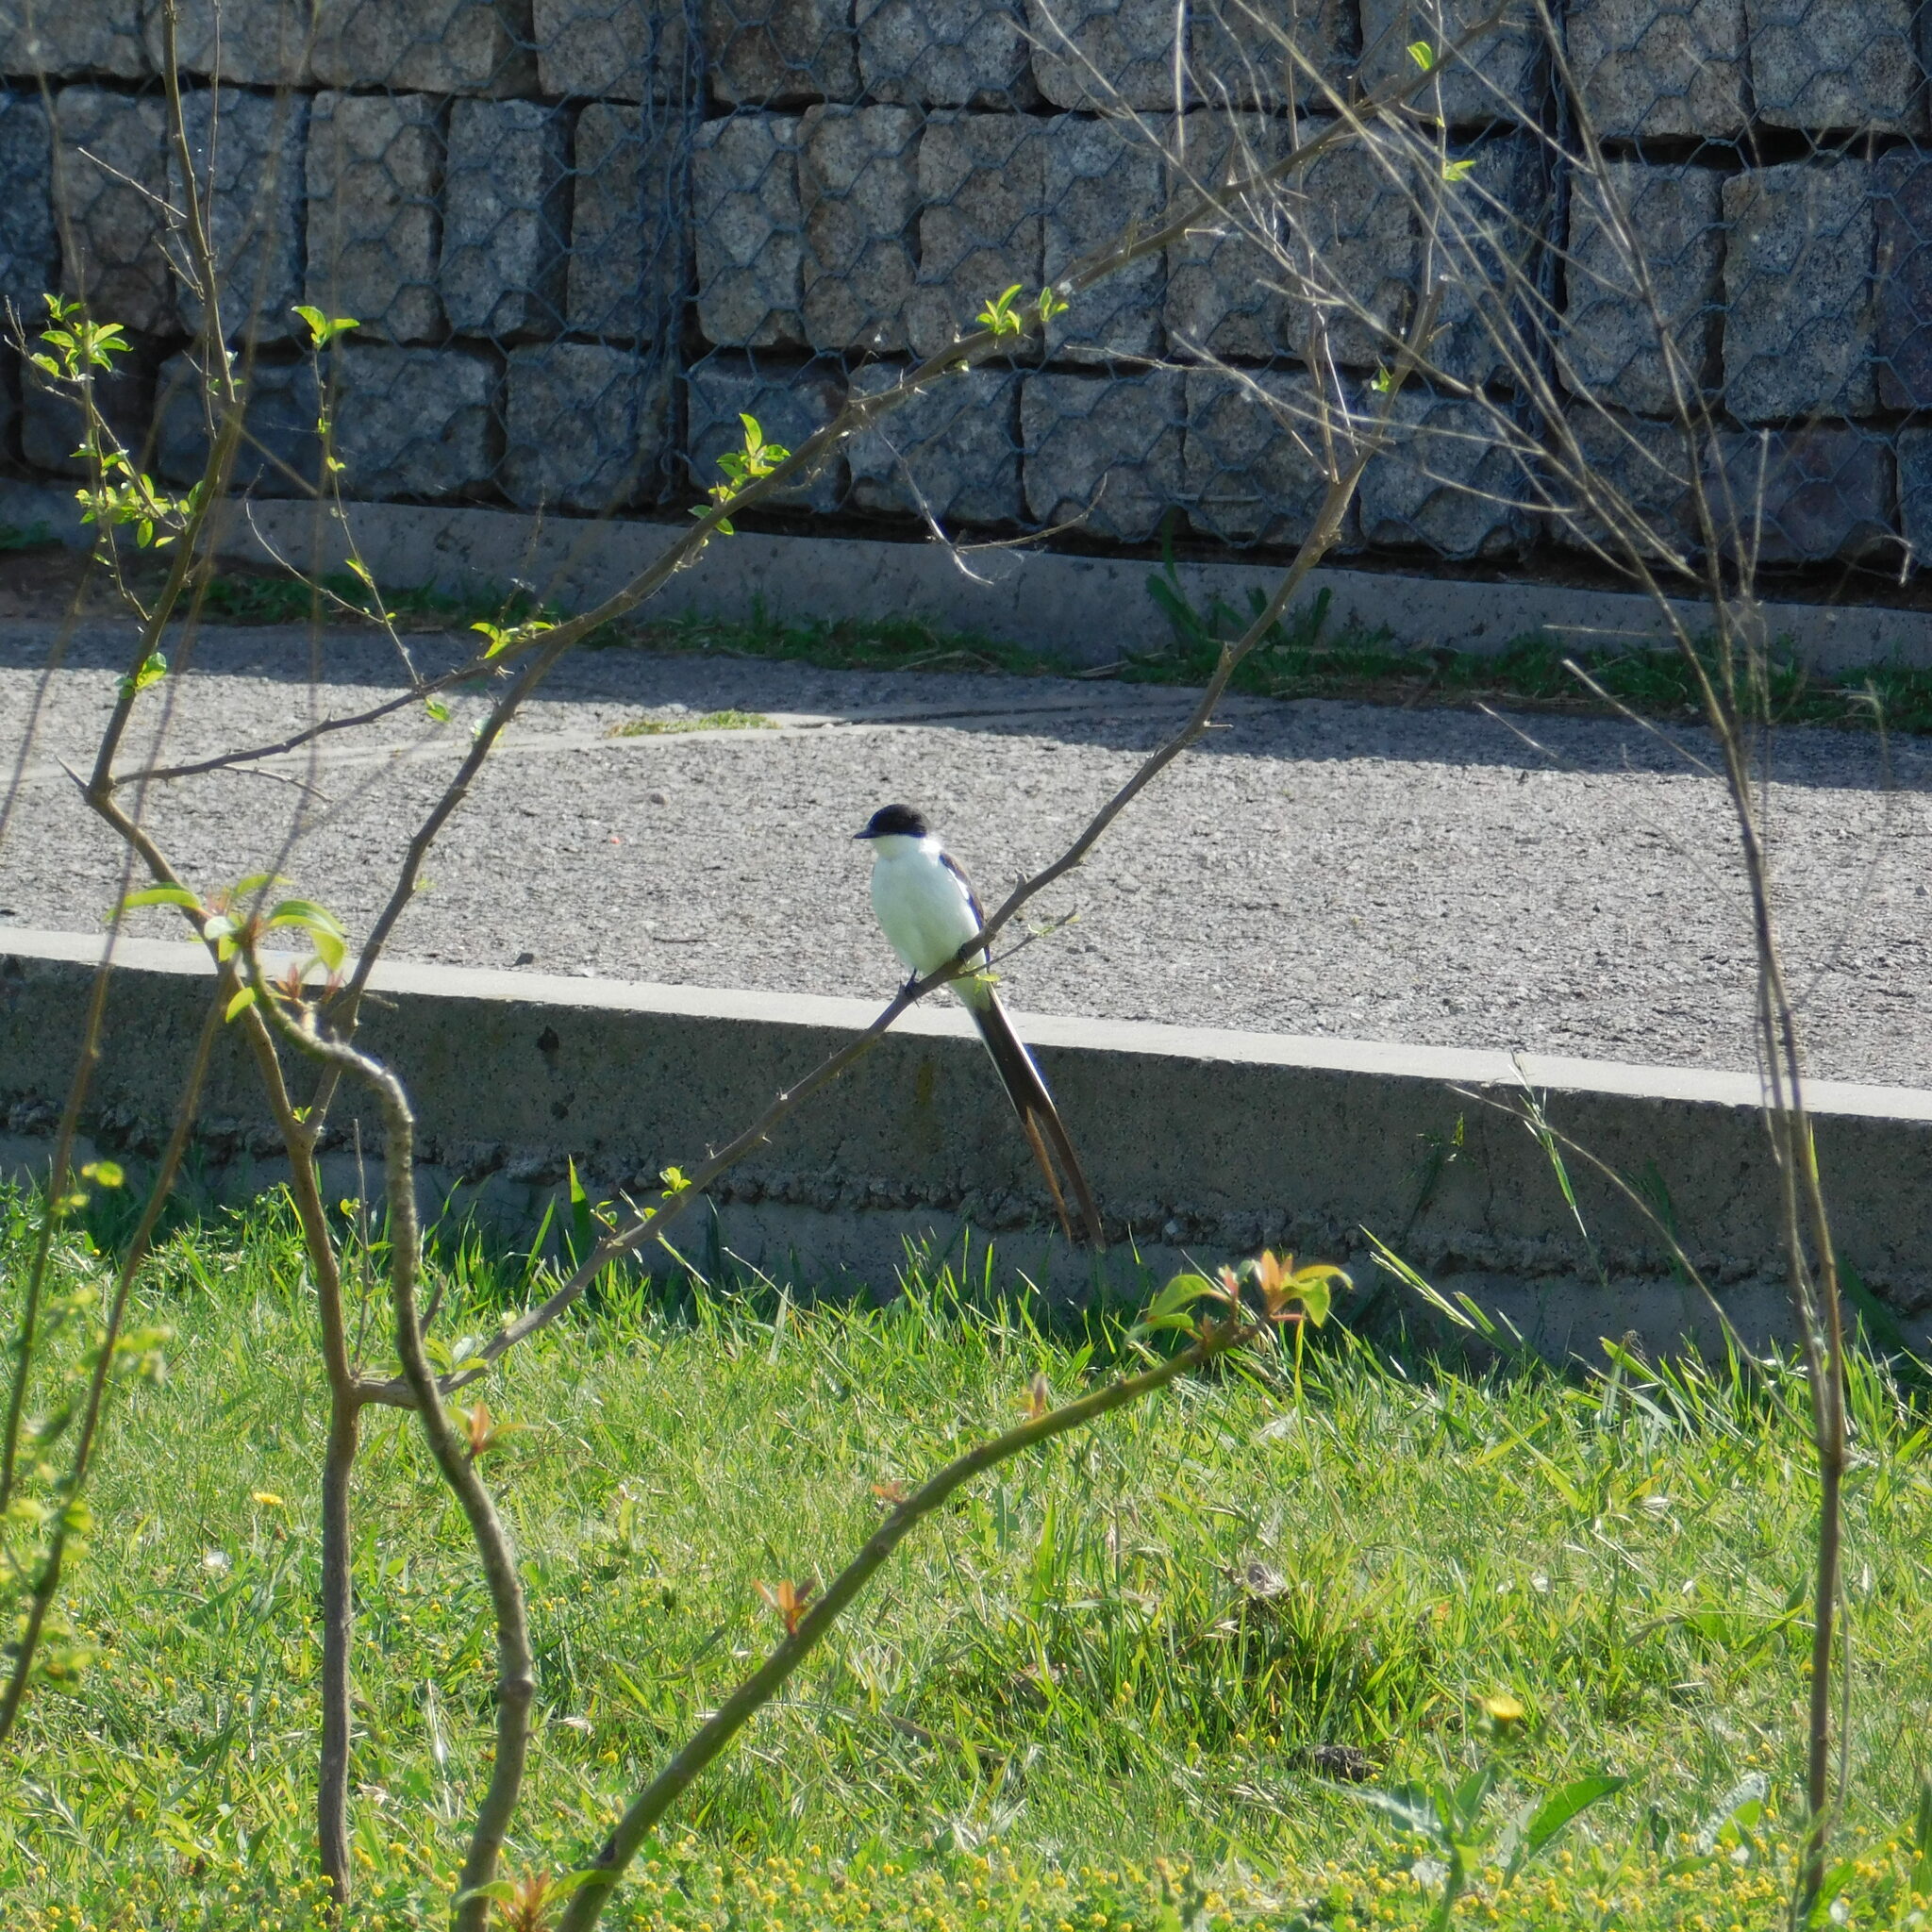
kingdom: Animalia
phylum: Chordata
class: Aves
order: Passeriformes
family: Tyrannidae
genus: Tyrannus
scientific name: Tyrannus savana
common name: Fork-tailed flycatcher
